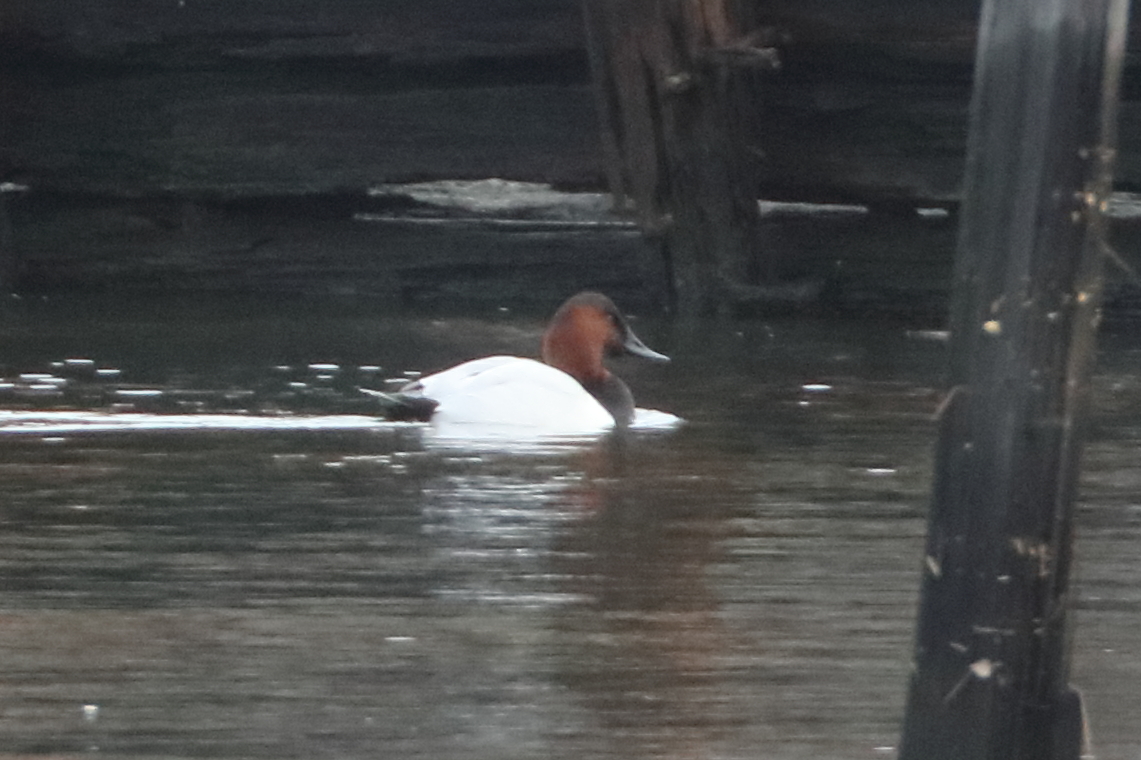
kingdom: Animalia
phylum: Chordata
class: Aves
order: Anseriformes
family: Anatidae
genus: Aythya
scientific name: Aythya valisineria
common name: Canvasback
